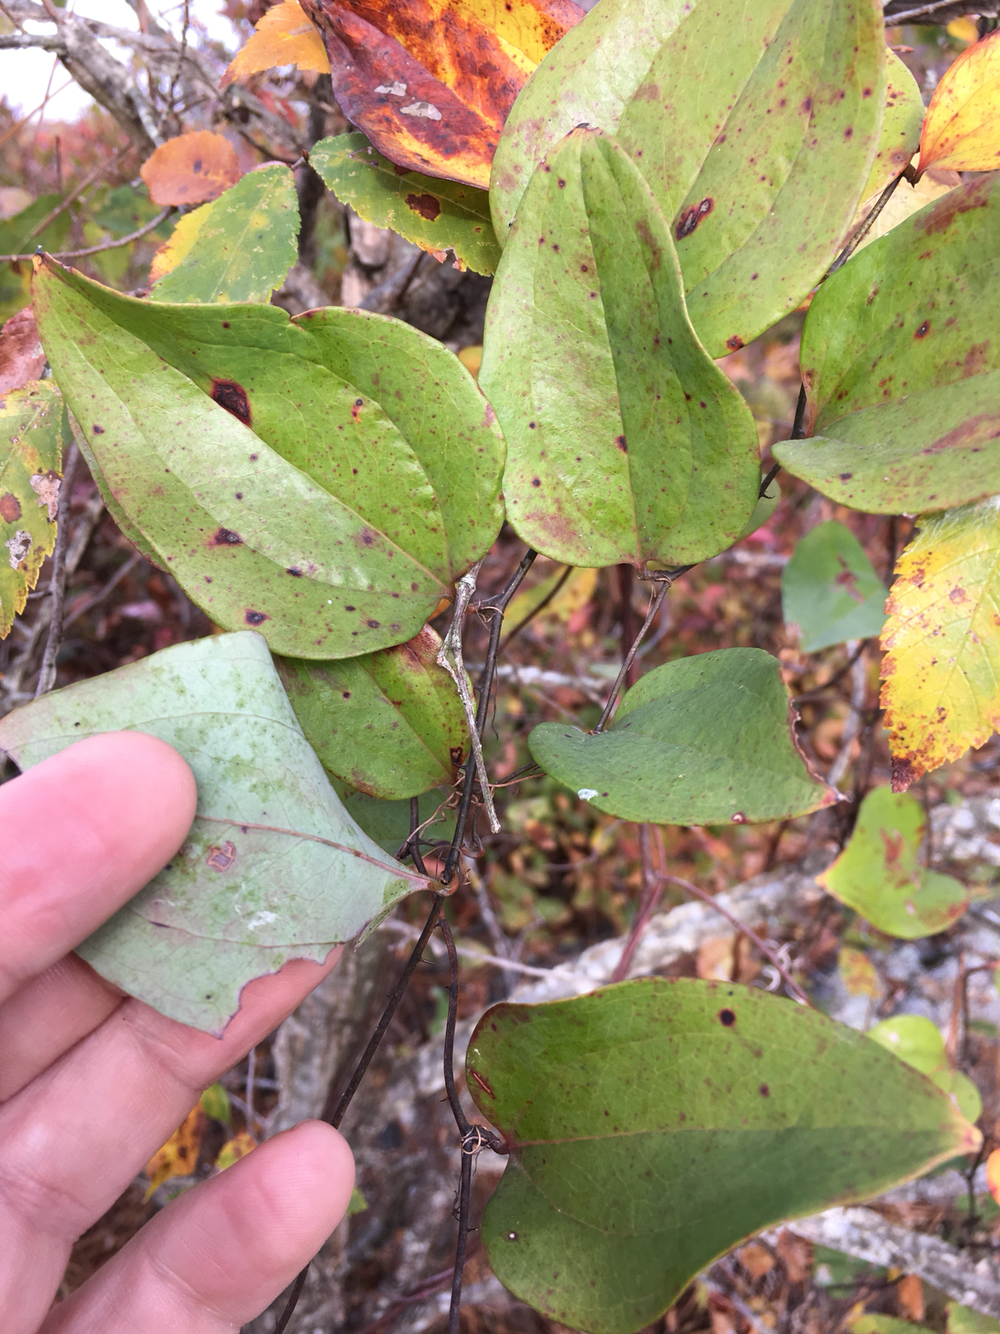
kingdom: Plantae
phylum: Tracheophyta
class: Liliopsida
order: Liliales
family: Smilacaceae
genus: Smilax
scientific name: Smilax glauca
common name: Cat greenbrier
